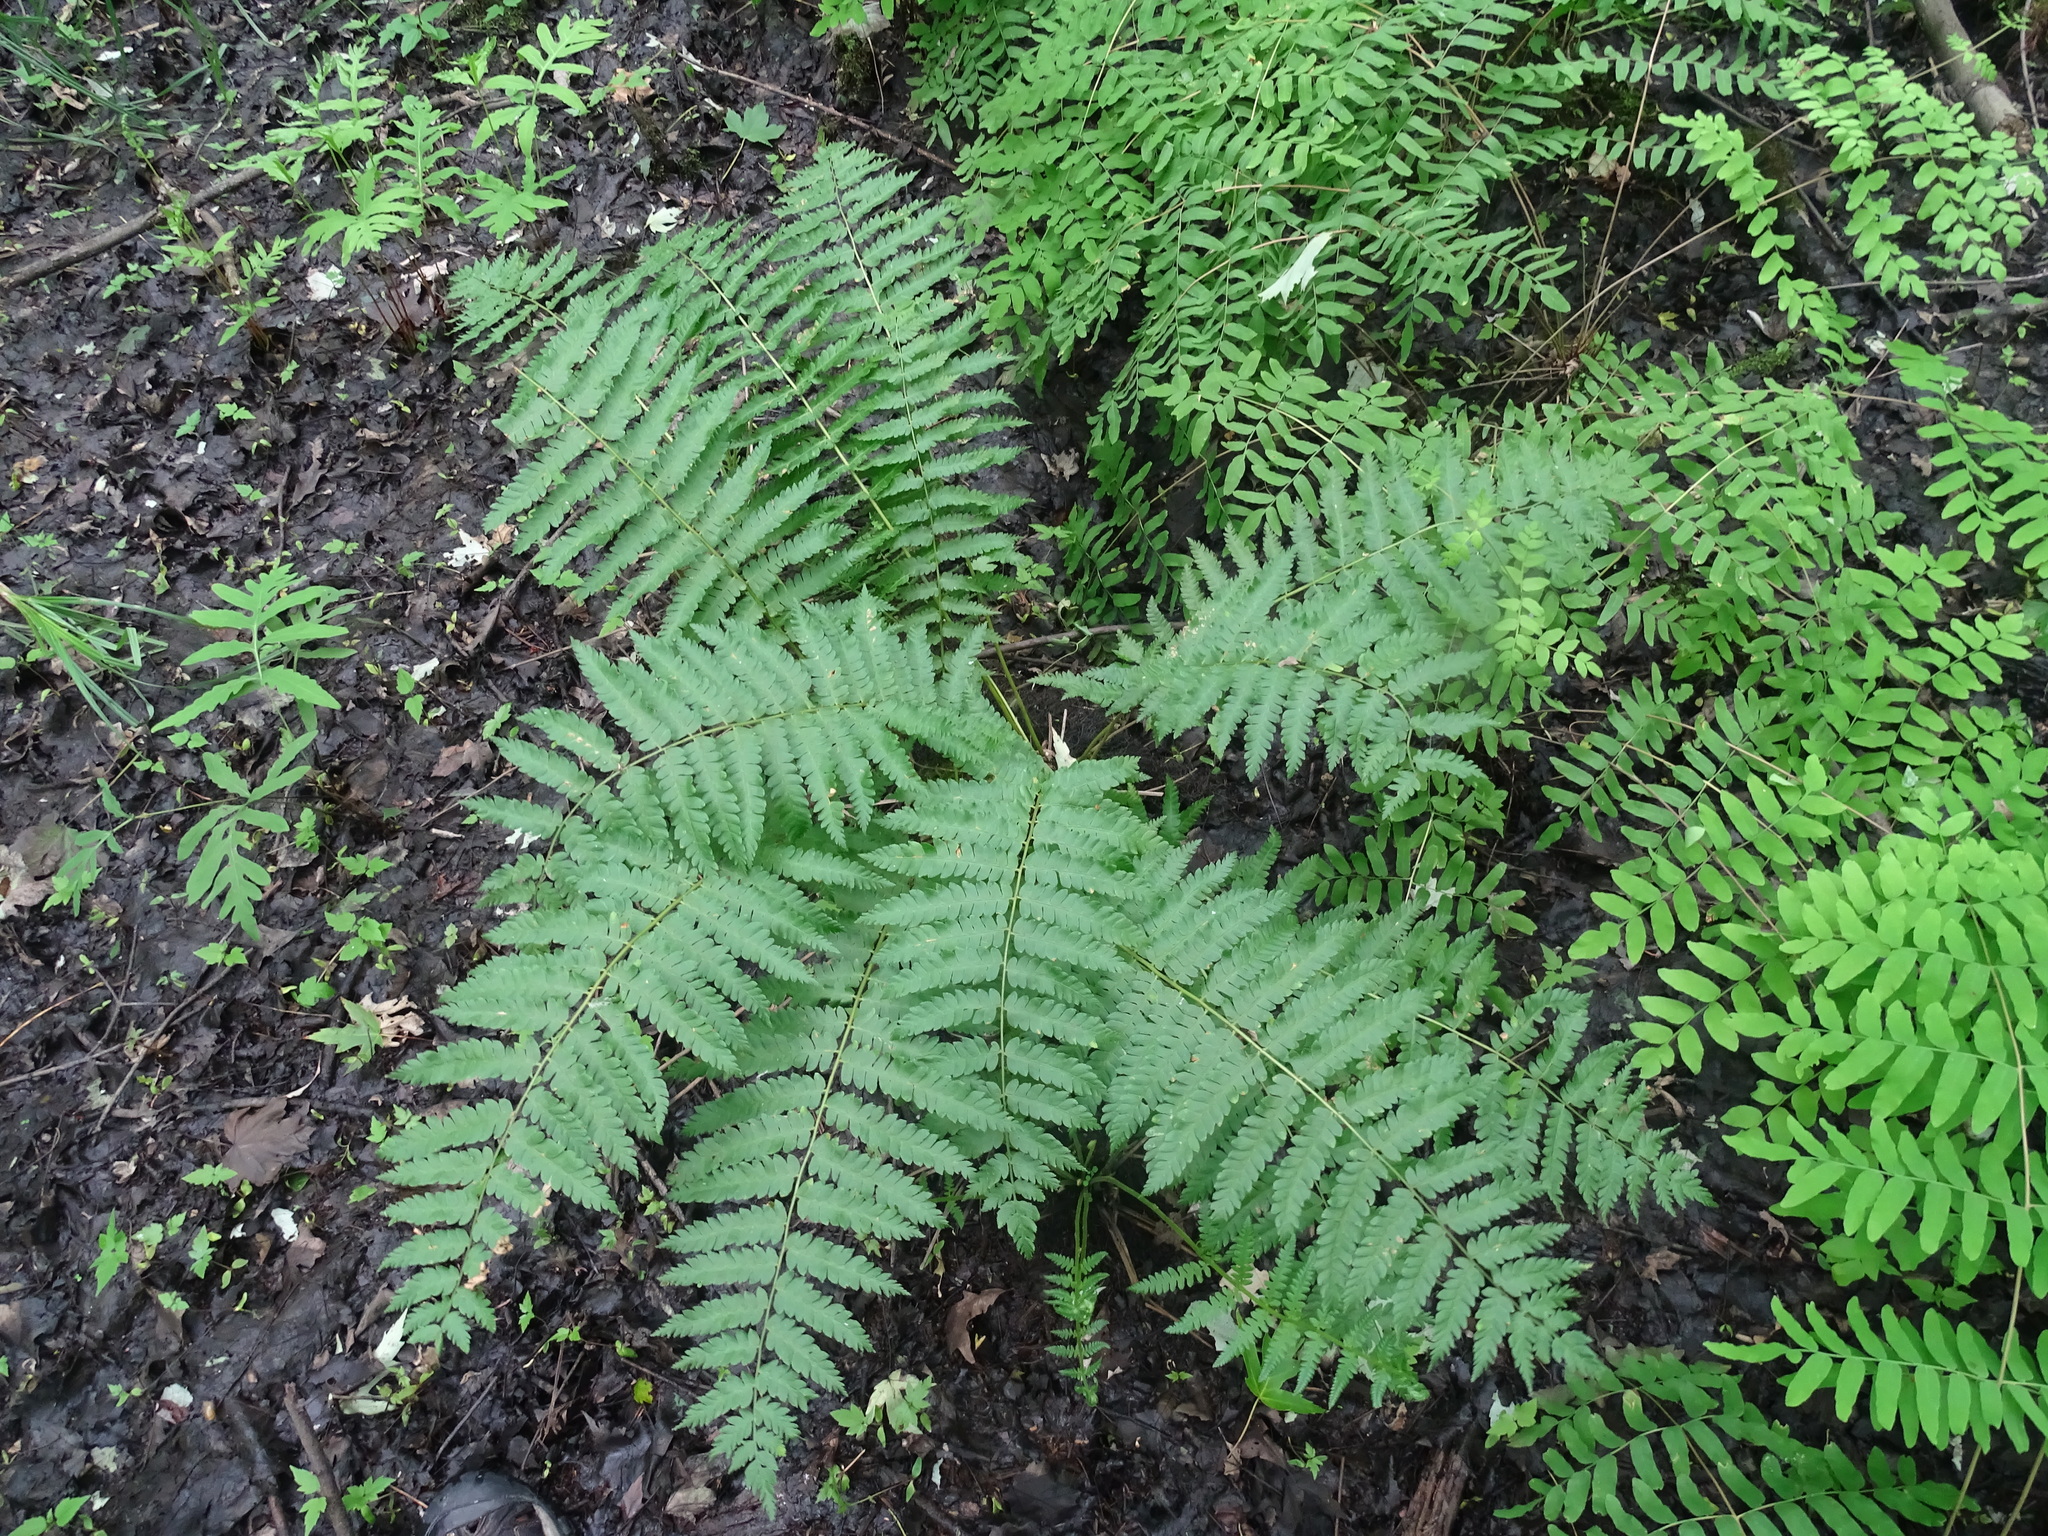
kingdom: Plantae
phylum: Tracheophyta
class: Polypodiopsida
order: Osmundales
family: Osmundaceae
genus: Osmundastrum
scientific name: Osmundastrum cinnamomeum
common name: Cinnamon fern
